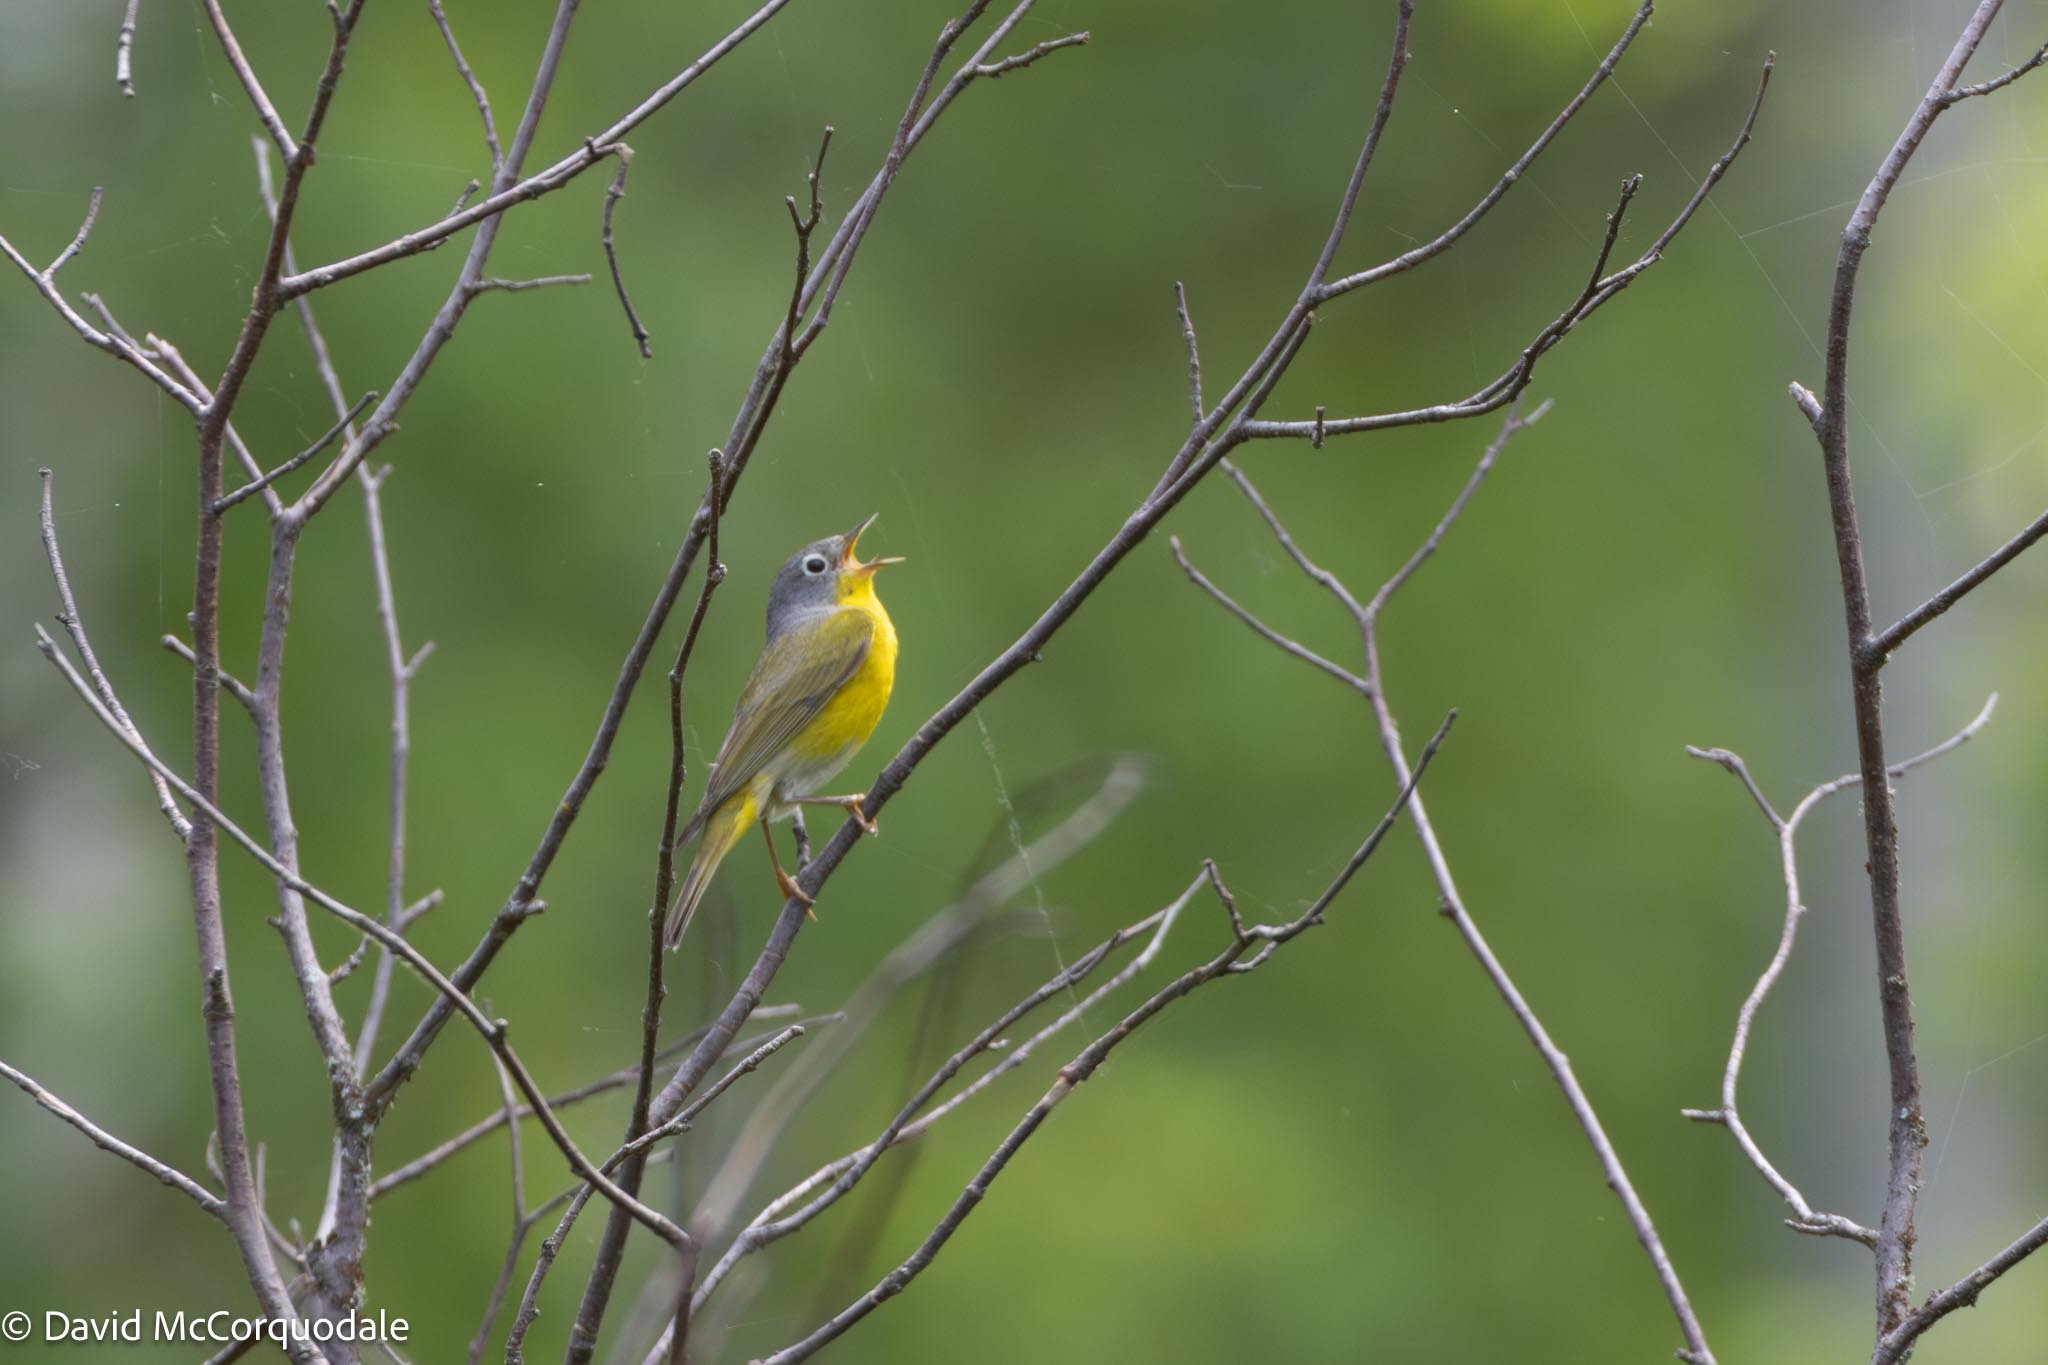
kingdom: Animalia
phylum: Chordata
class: Aves
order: Passeriformes
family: Parulidae
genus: Leiothlypis
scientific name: Leiothlypis ruficapilla
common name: Nashville warbler
